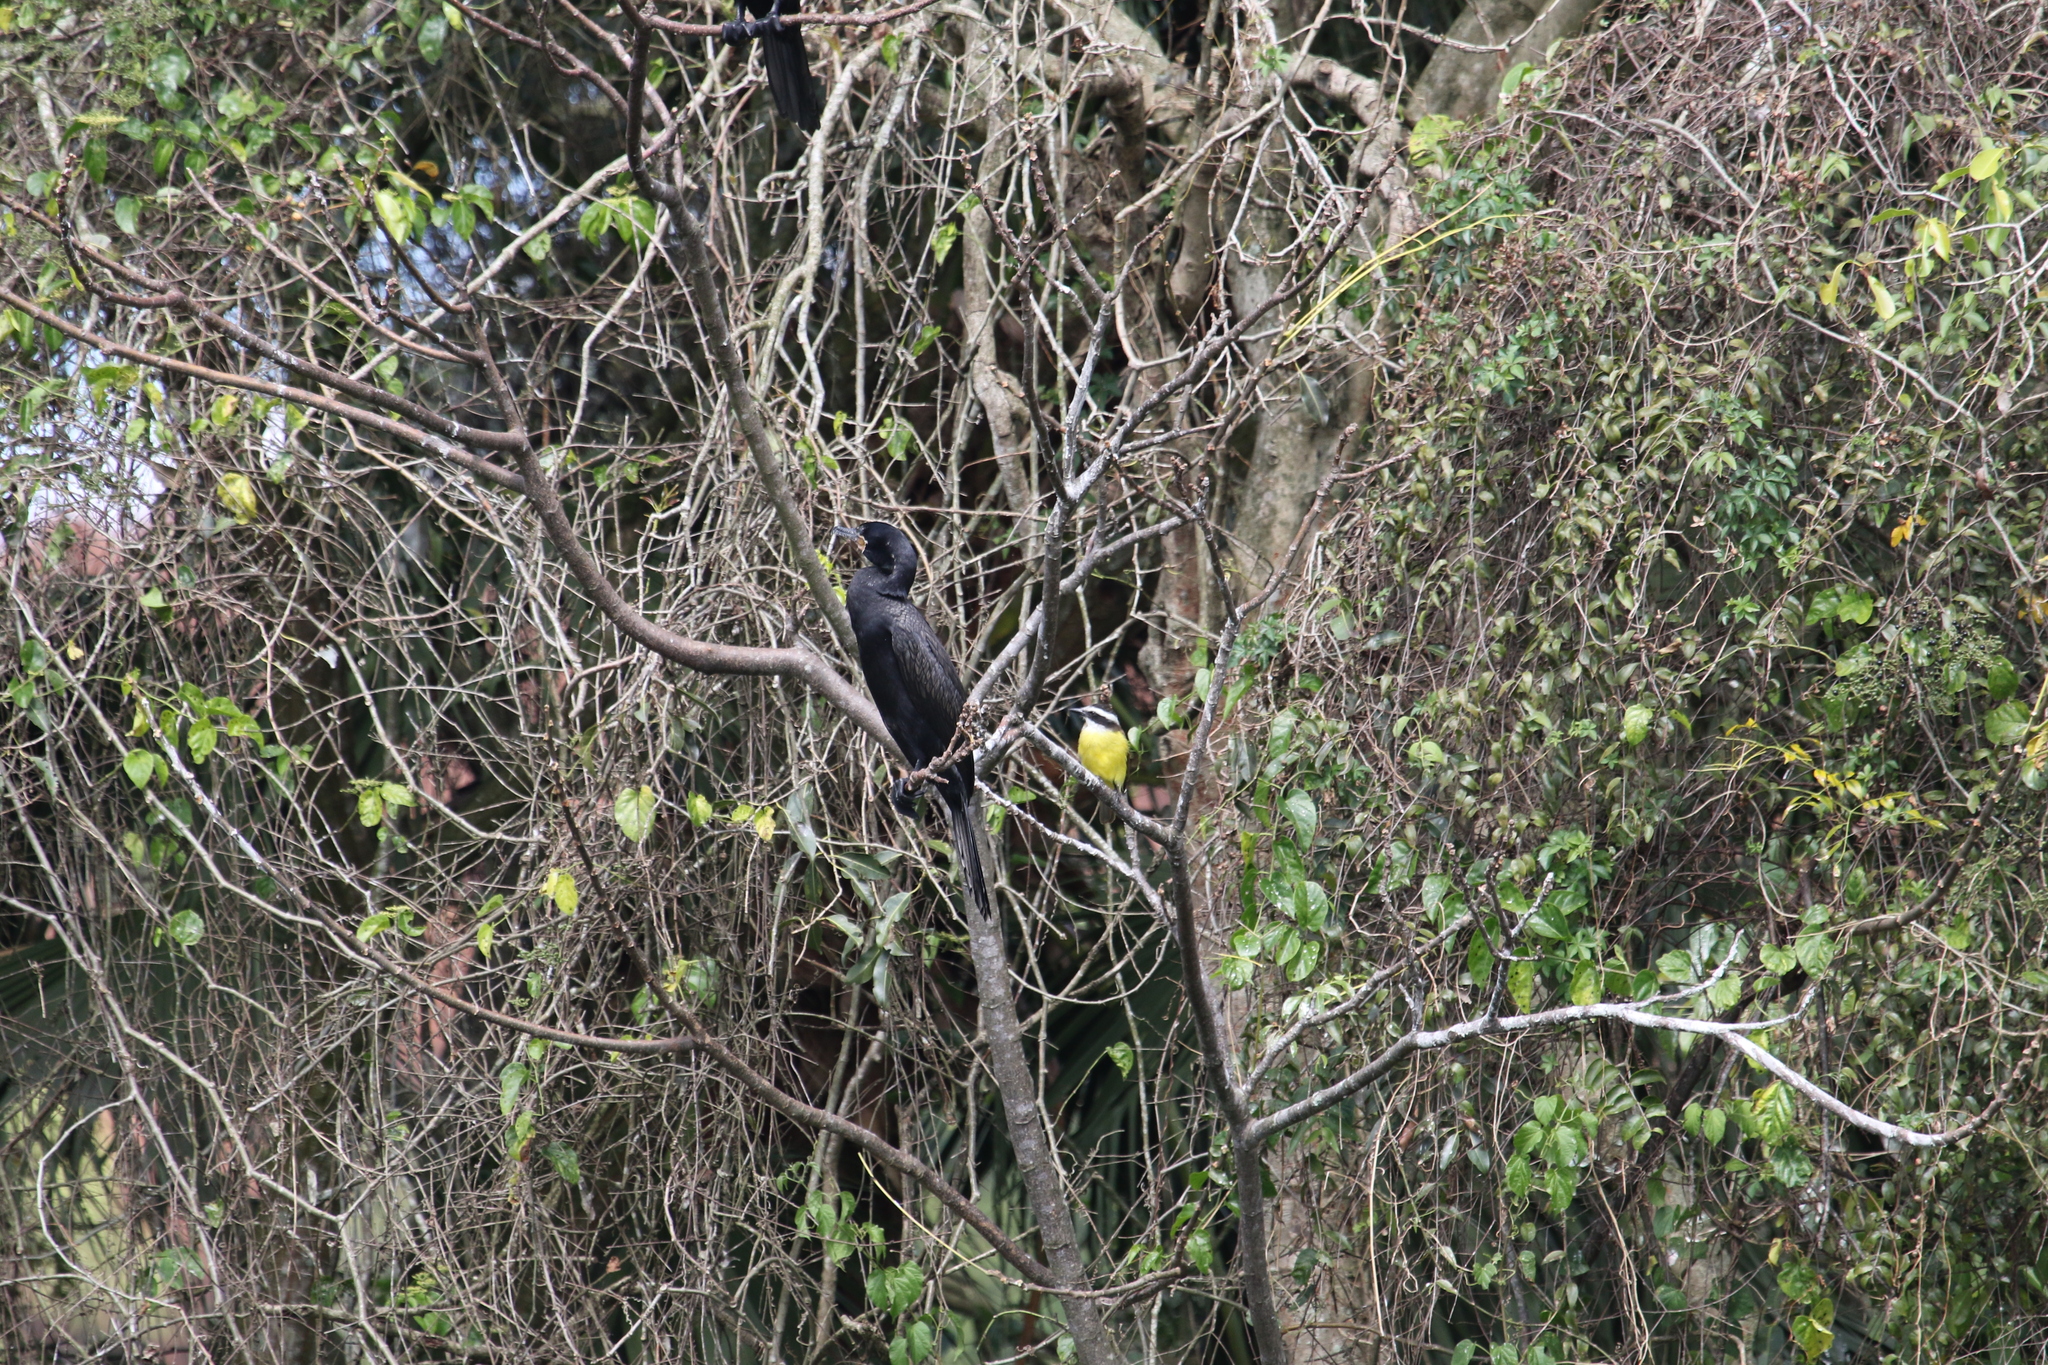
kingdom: Animalia
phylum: Chordata
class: Aves
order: Suliformes
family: Phalacrocoracidae
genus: Phalacrocorax
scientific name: Phalacrocorax brasilianus
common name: Neotropic cormorant
